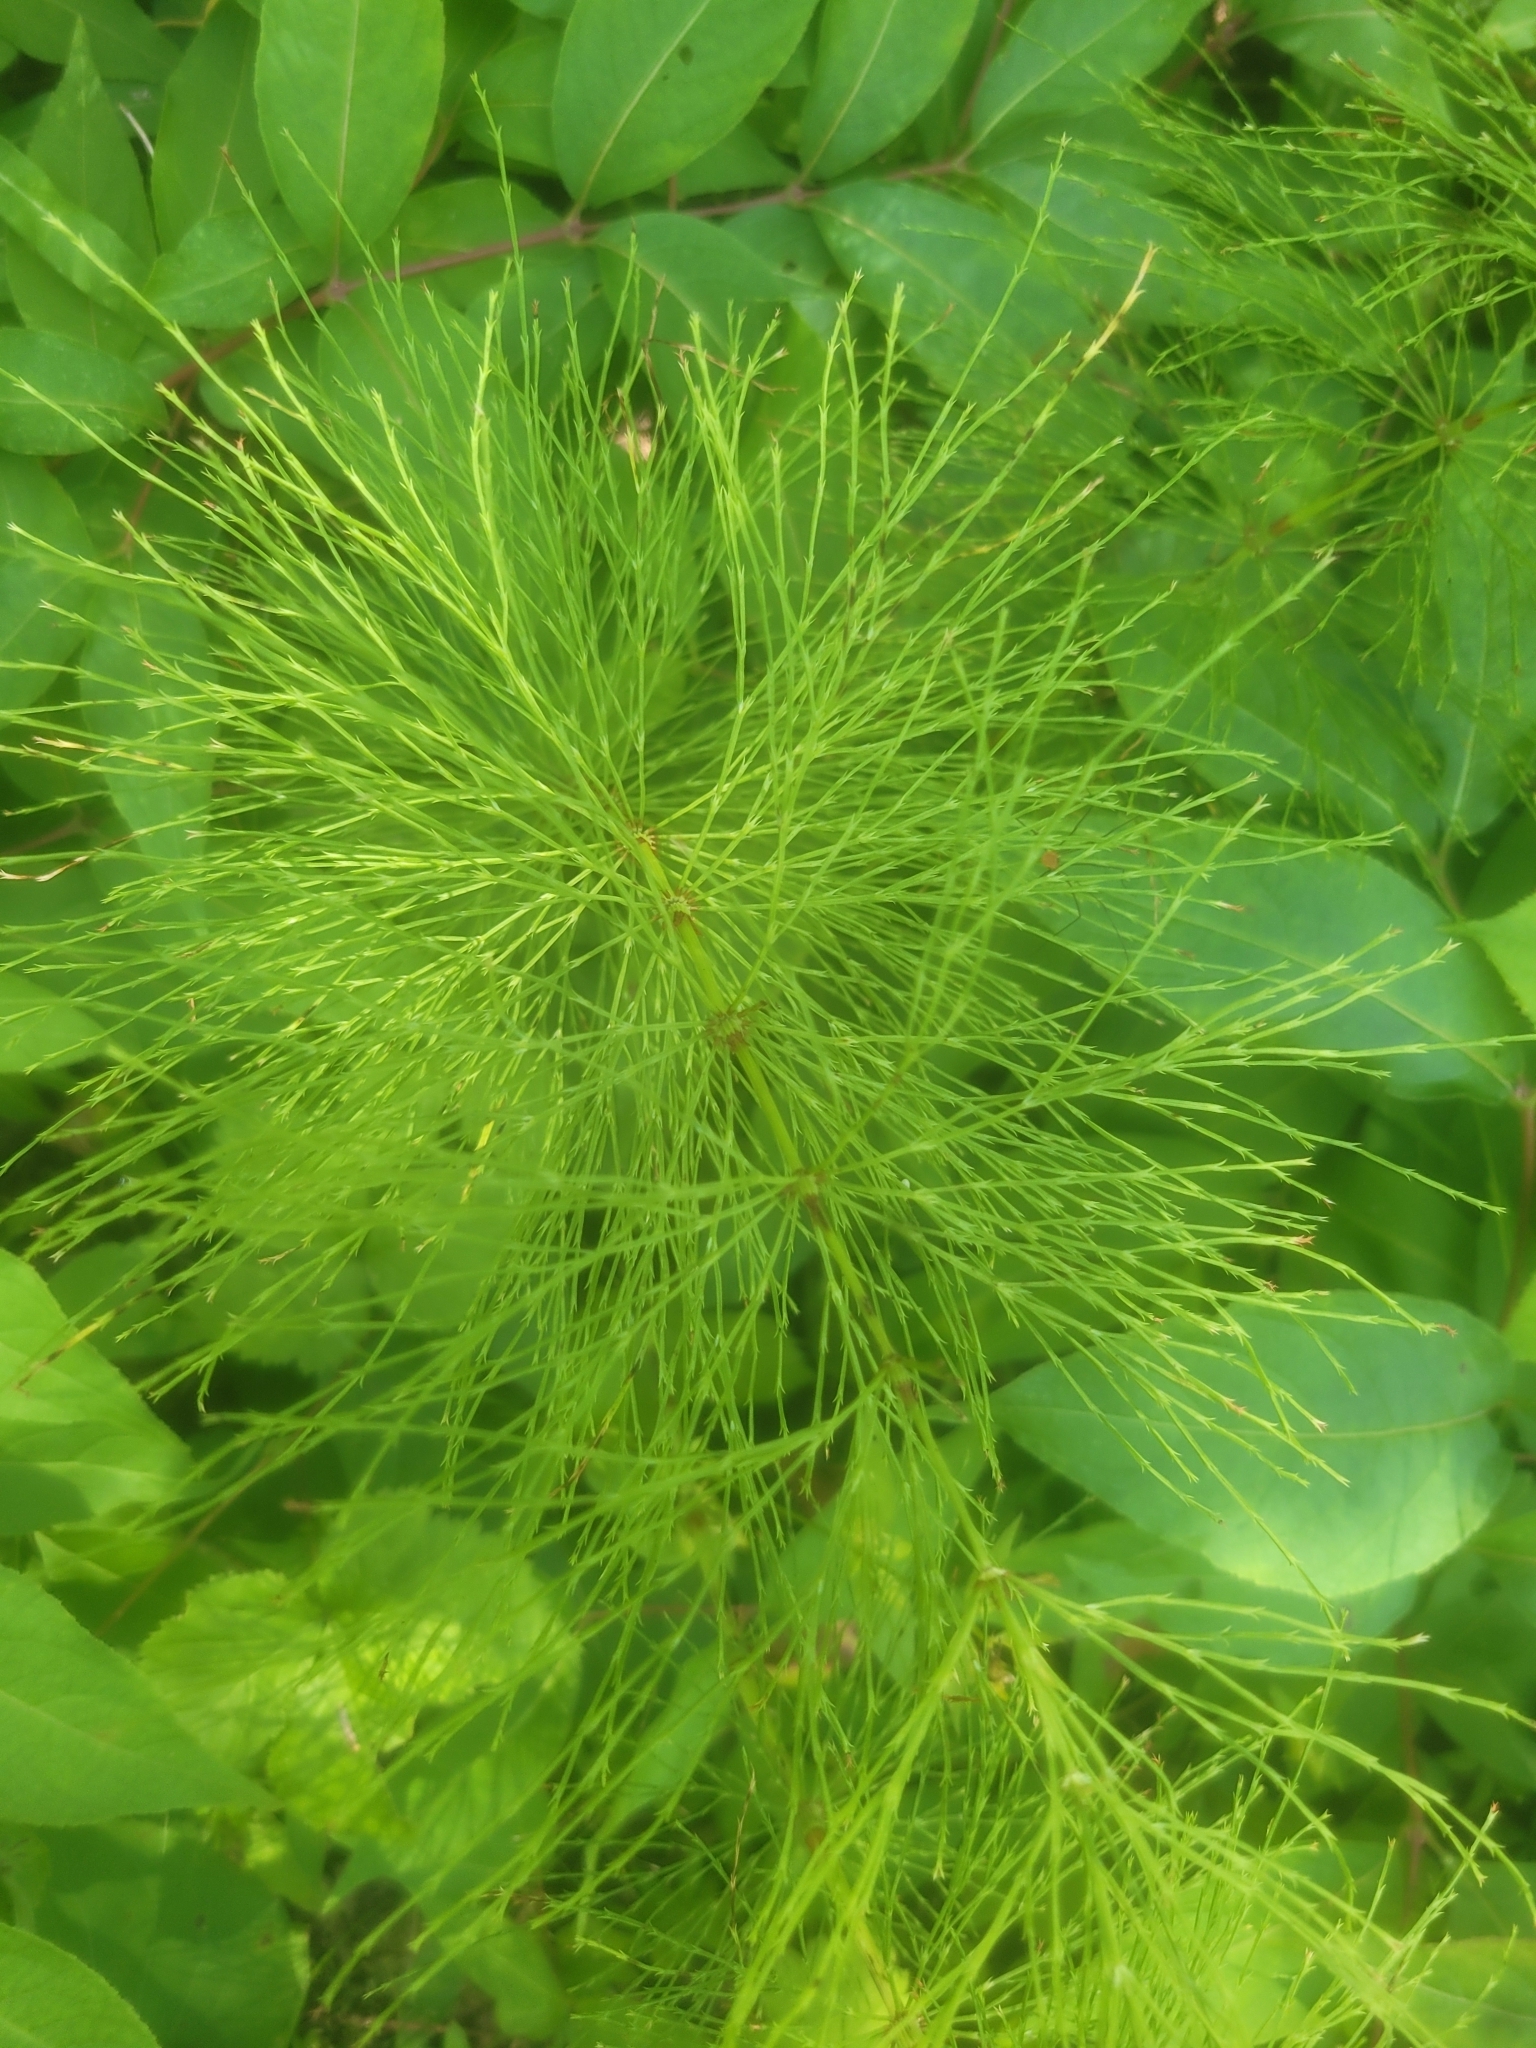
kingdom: Plantae
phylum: Tracheophyta
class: Polypodiopsida
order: Equisetales
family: Equisetaceae
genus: Equisetum
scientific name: Equisetum sylvaticum
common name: Wood horsetail
